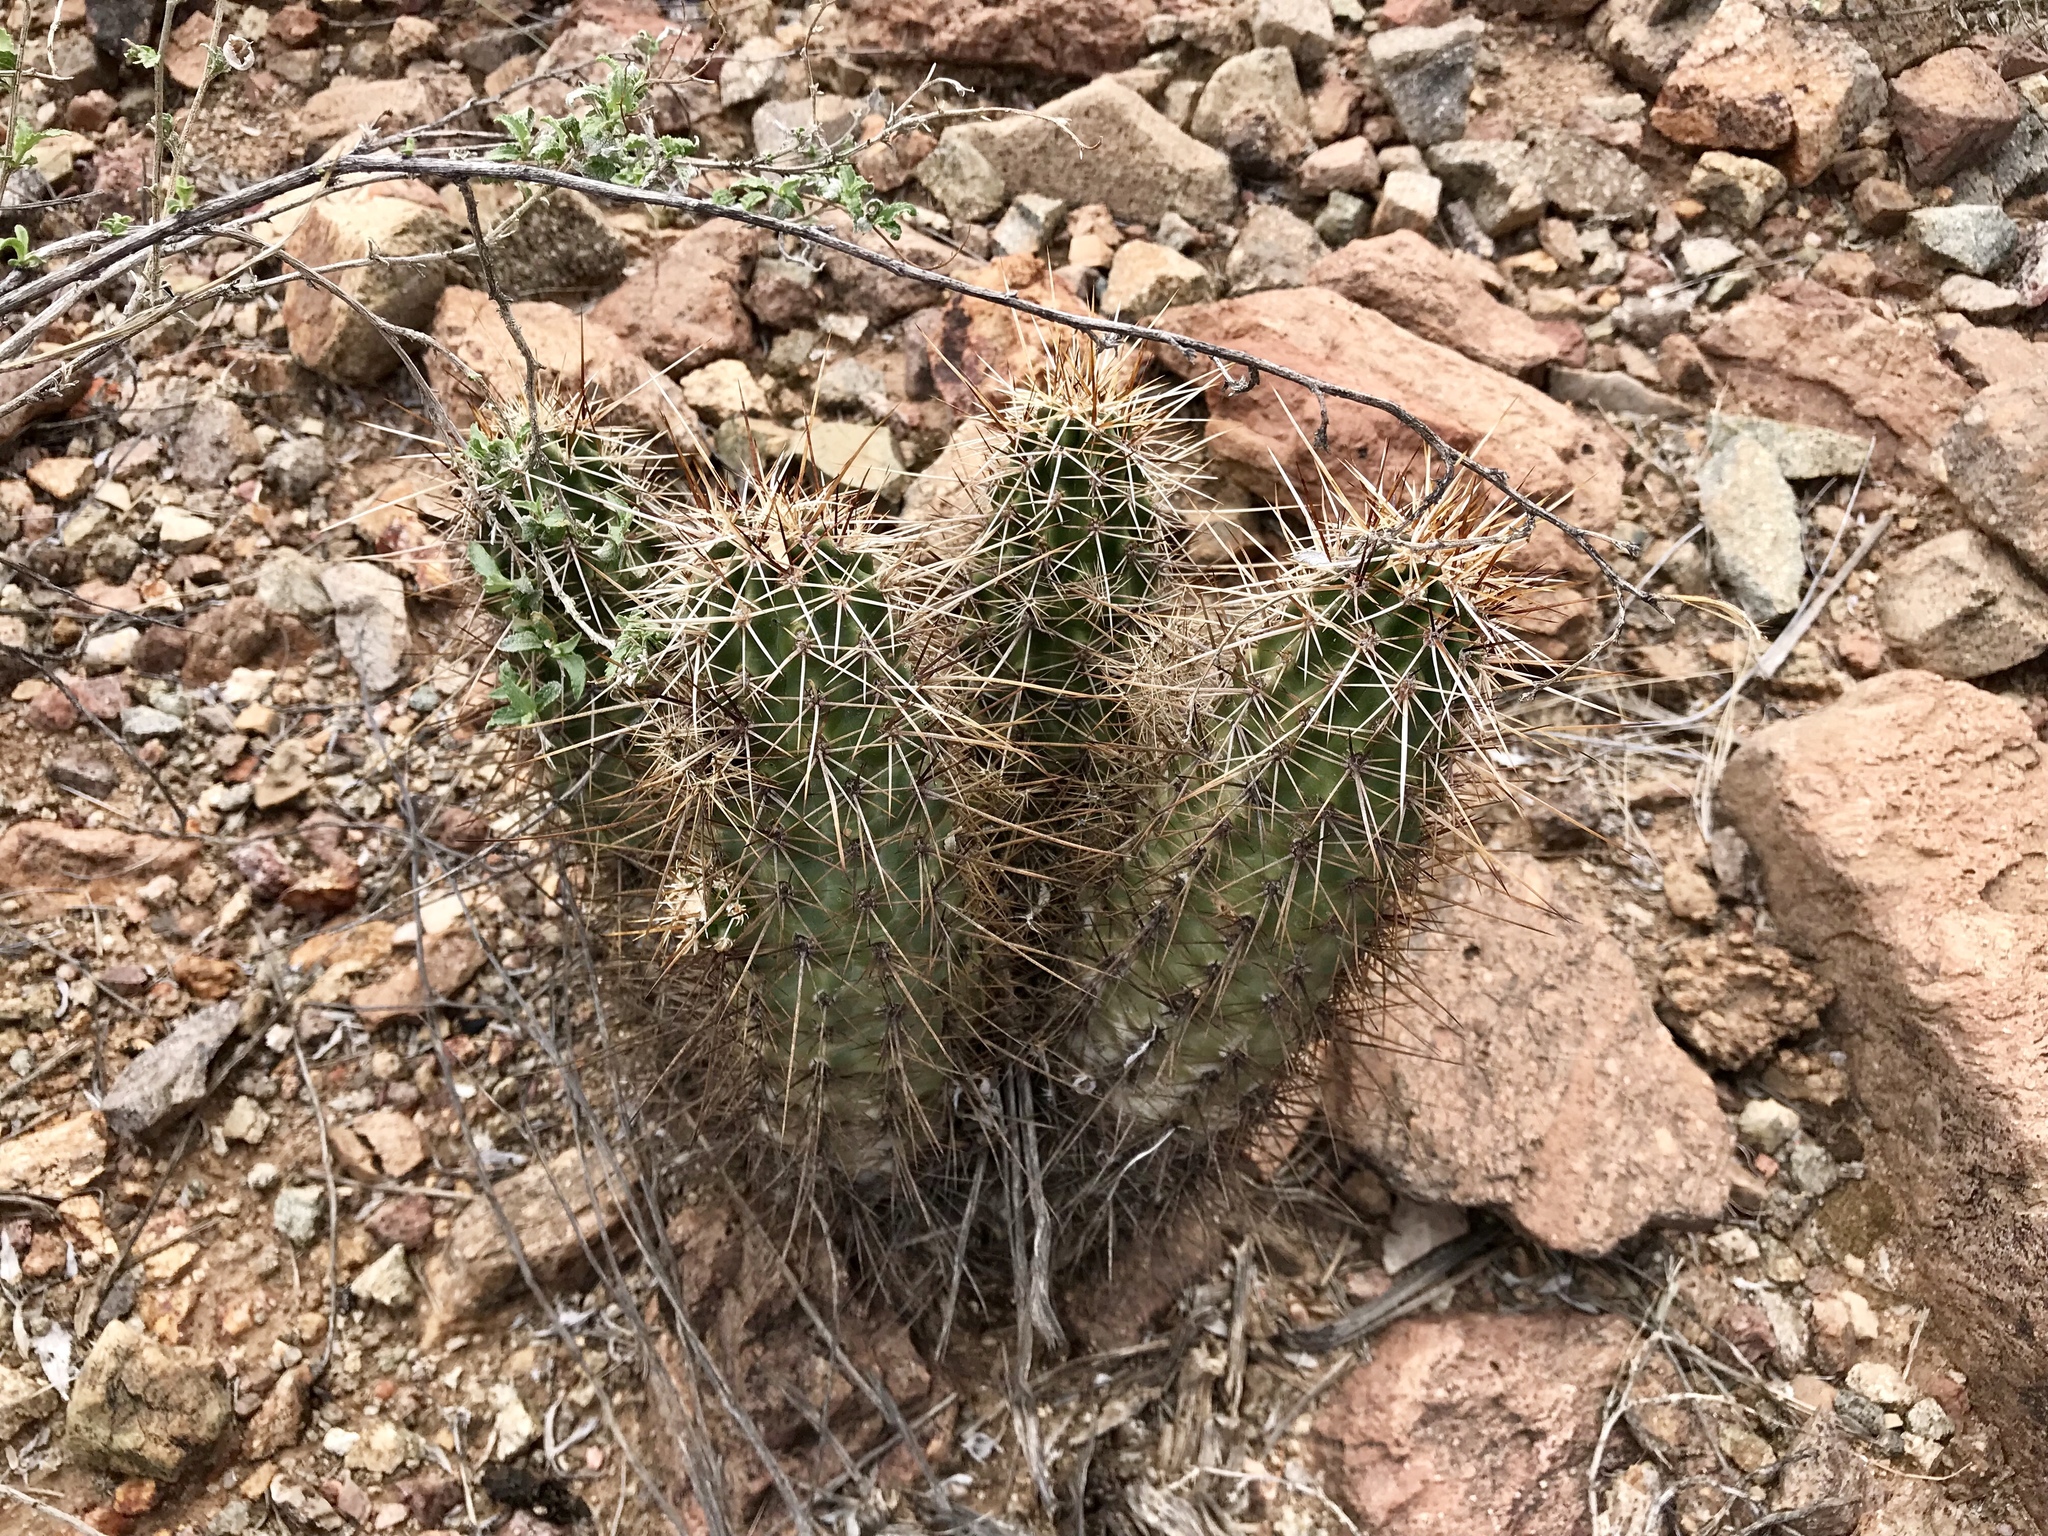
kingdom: Plantae
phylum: Tracheophyta
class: Magnoliopsida
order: Caryophyllales
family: Cactaceae
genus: Echinocereus
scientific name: Echinocereus fasciculatus
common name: Bundle hedgehog
